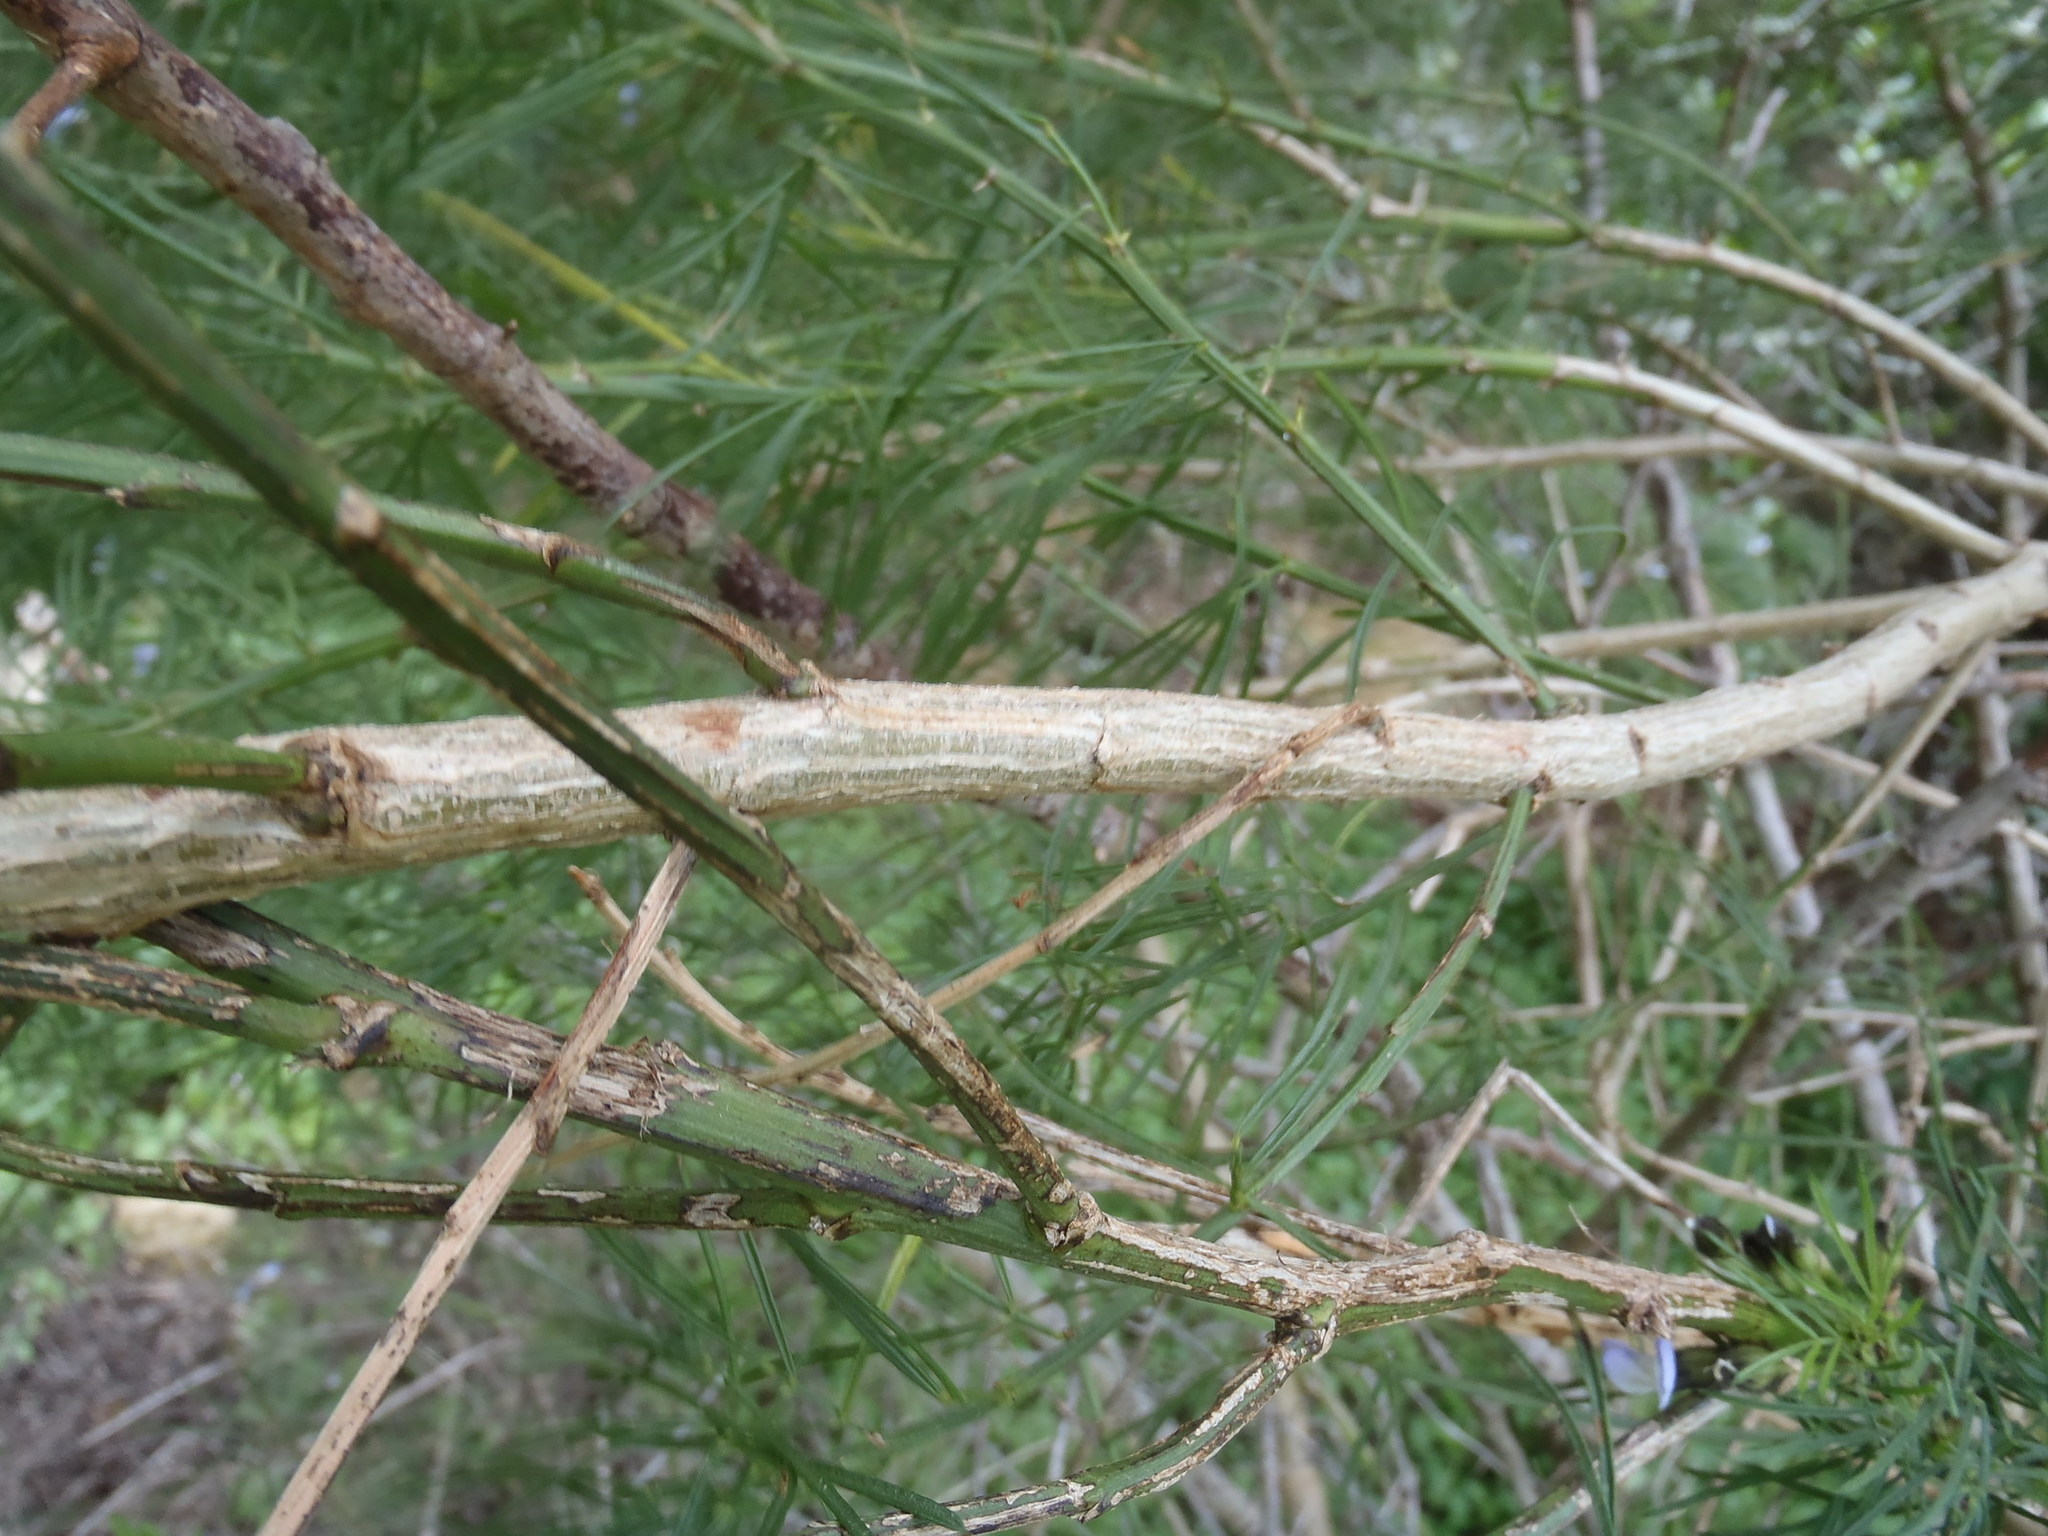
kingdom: Plantae
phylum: Tracheophyta
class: Magnoliopsida
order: Fabales
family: Fabaceae
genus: Psoralea
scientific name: Psoralea arborea
